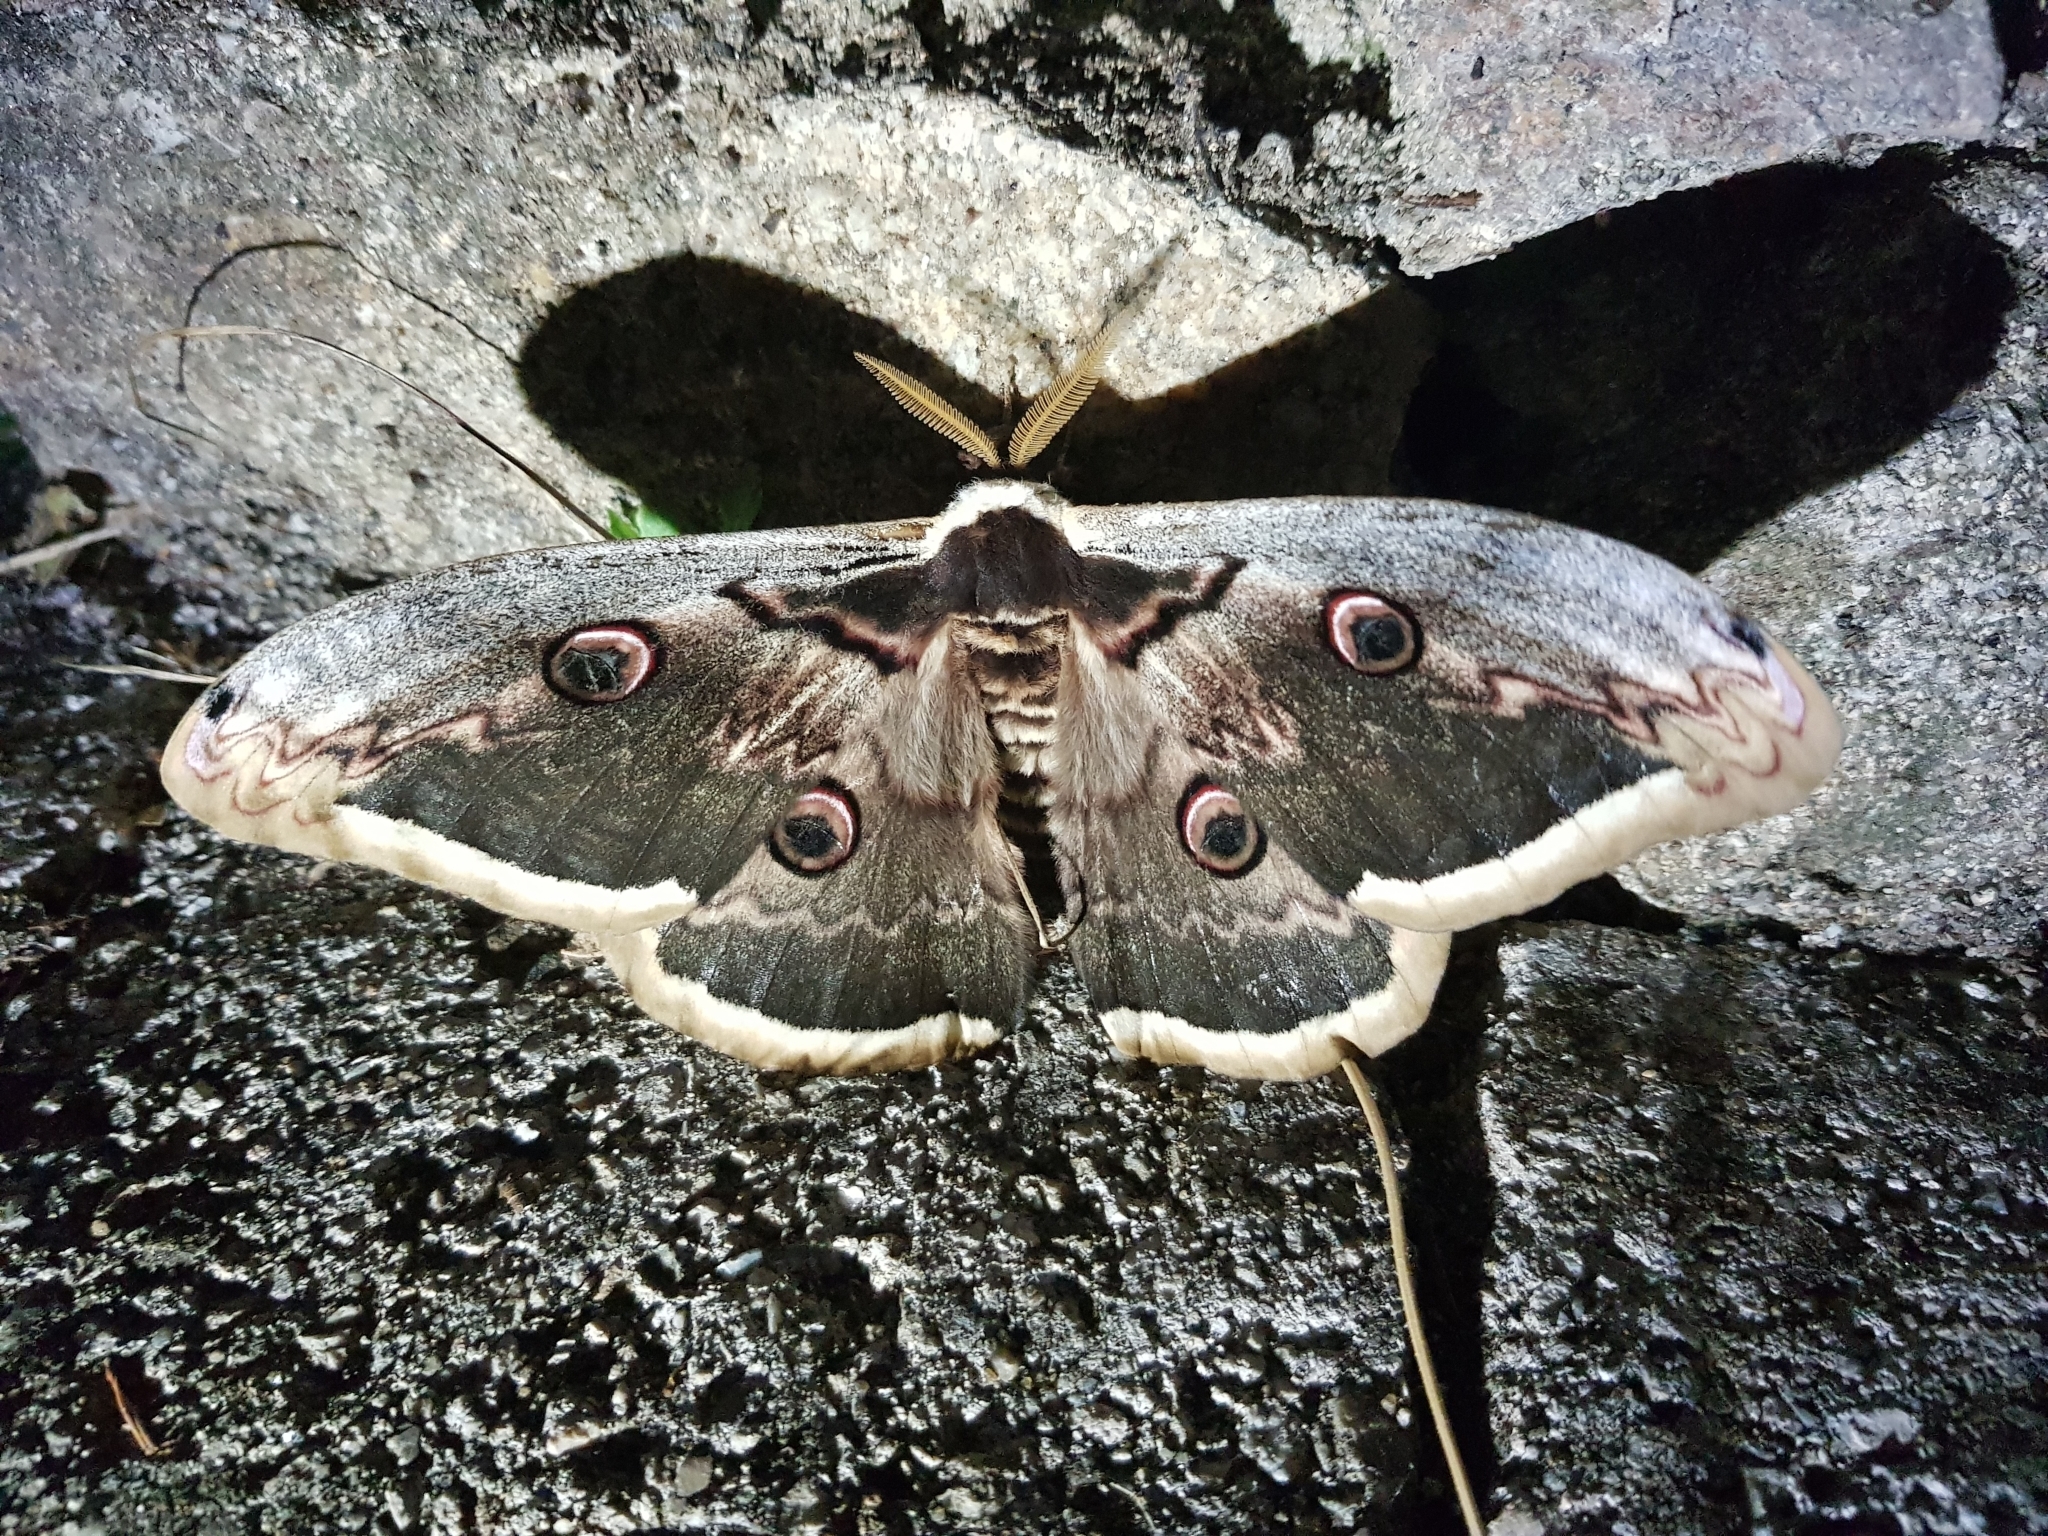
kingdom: Animalia
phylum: Arthropoda
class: Insecta
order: Lepidoptera
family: Saturniidae
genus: Saturnia
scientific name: Saturnia pyri
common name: Great peacock moth
